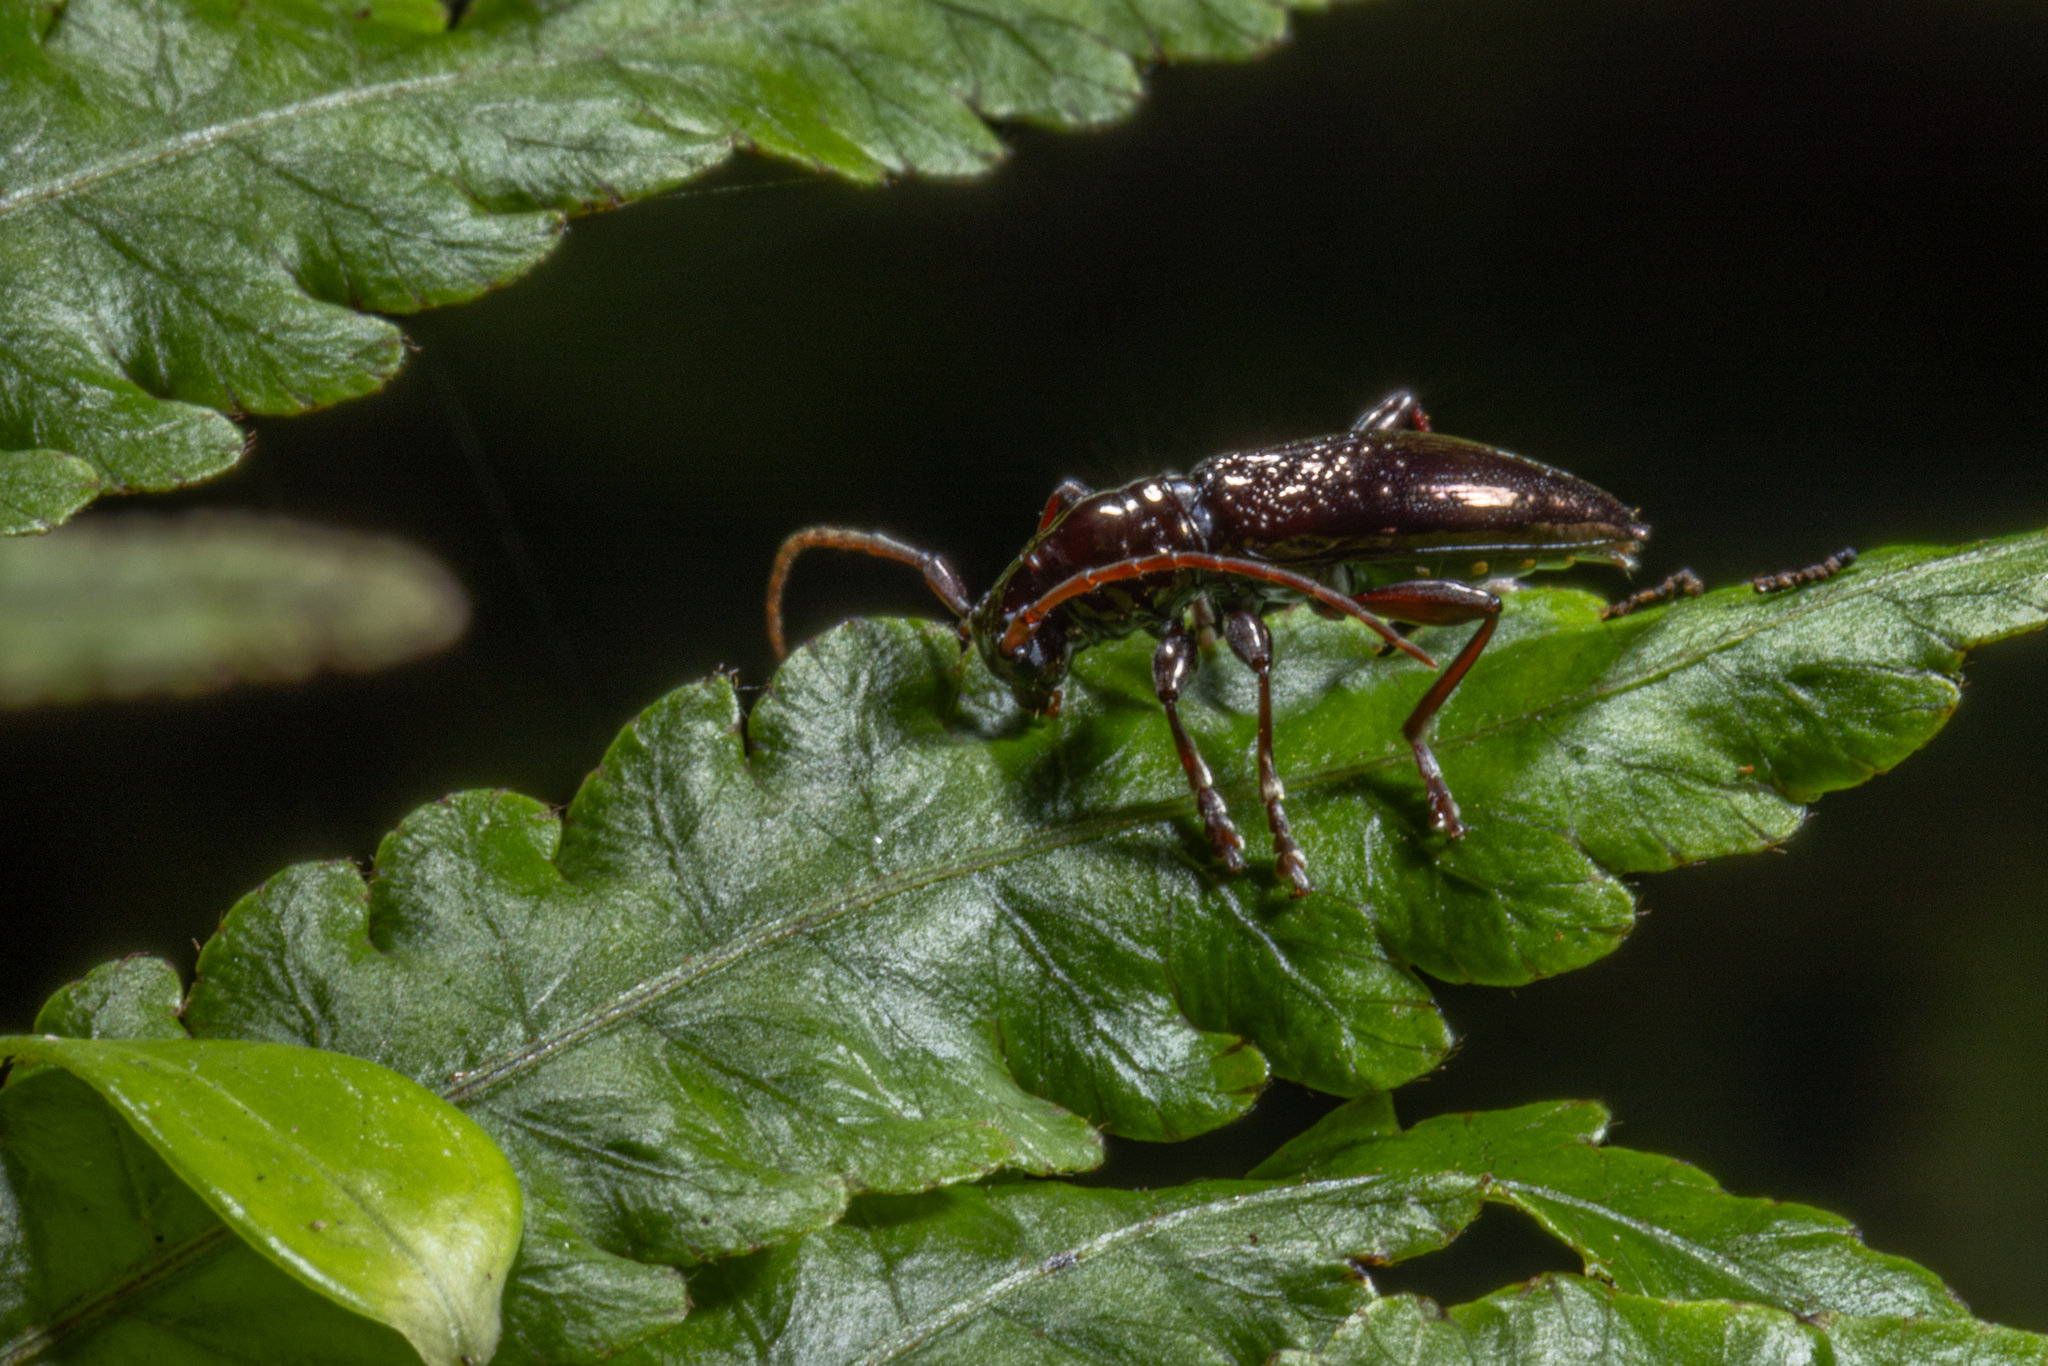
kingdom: Animalia
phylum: Arthropoda
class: Insecta
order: Coleoptera
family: Cerambycidae
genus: Xylotoles
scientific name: Xylotoles nudus
